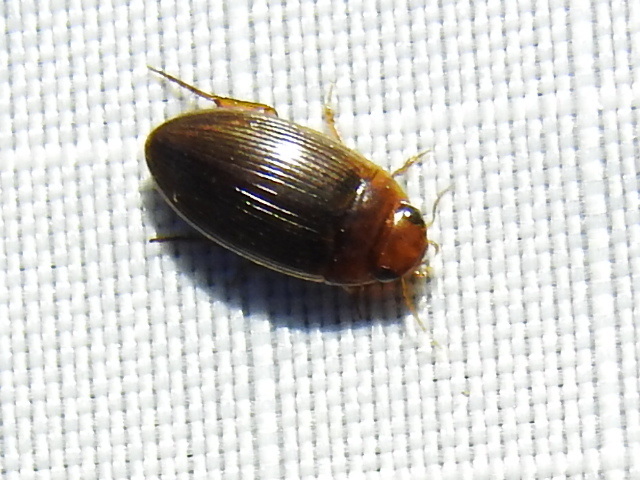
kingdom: Animalia
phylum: Arthropoda
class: Insecta
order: Coleoptera
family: Dytiscidae
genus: Copelatus
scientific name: Copelatus glyphicus
